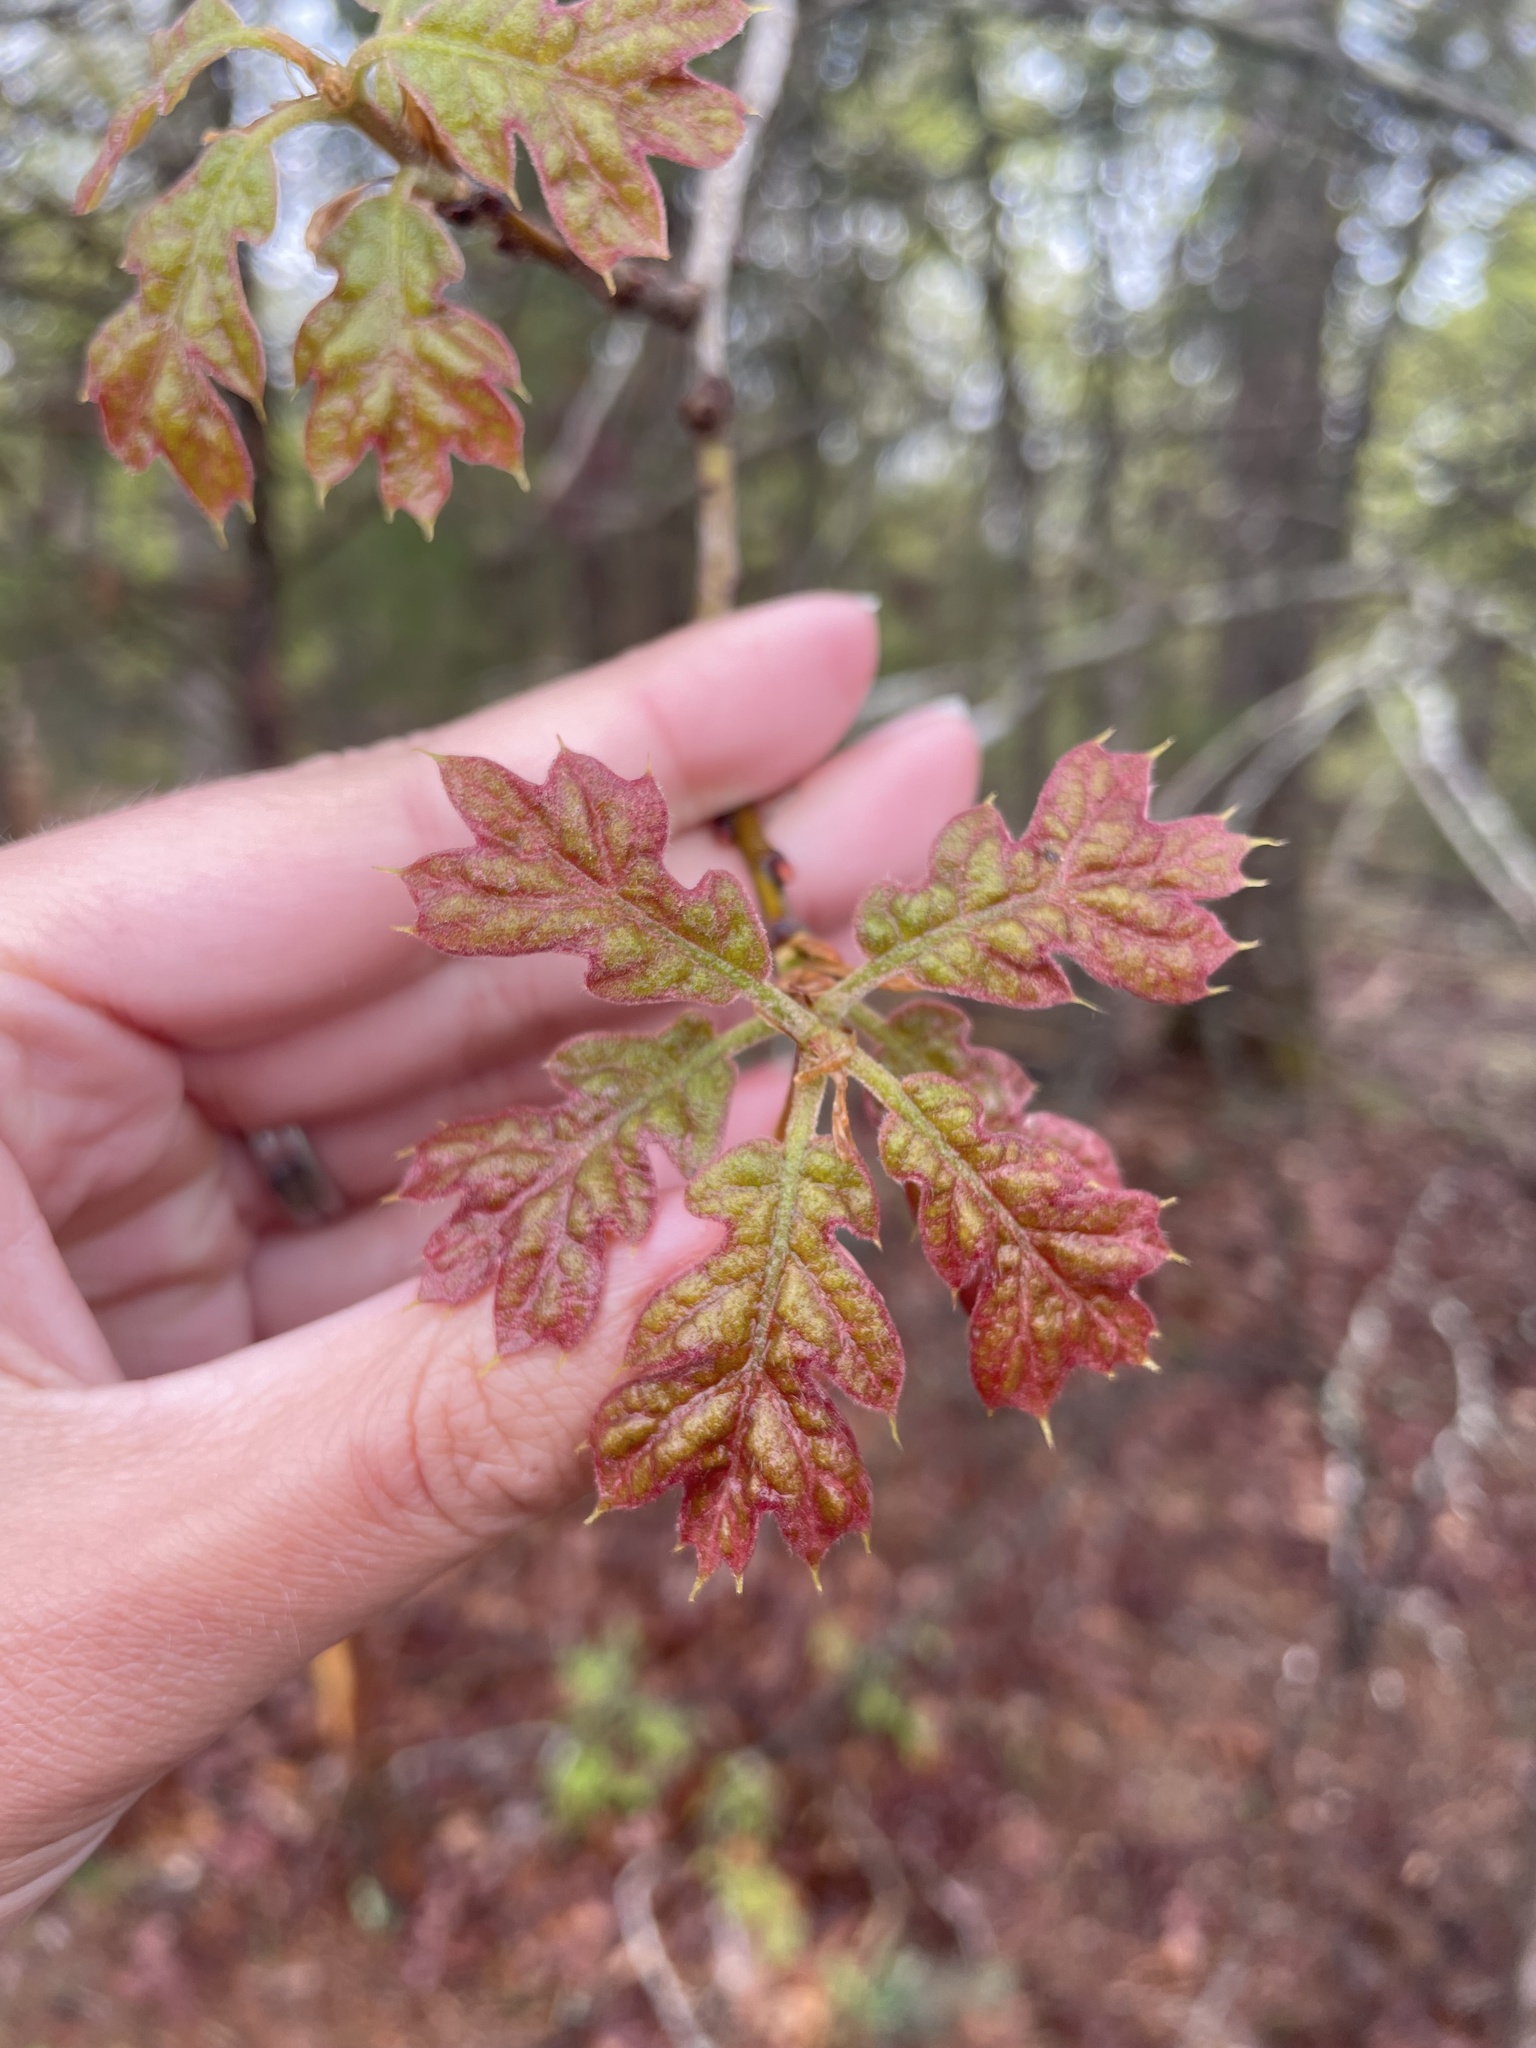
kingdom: Plantae
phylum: Tracheophyta
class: Magnoliopsida
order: Fagales
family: Fagaceae
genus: Quercus
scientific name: Quercus velutina
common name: Black oak
